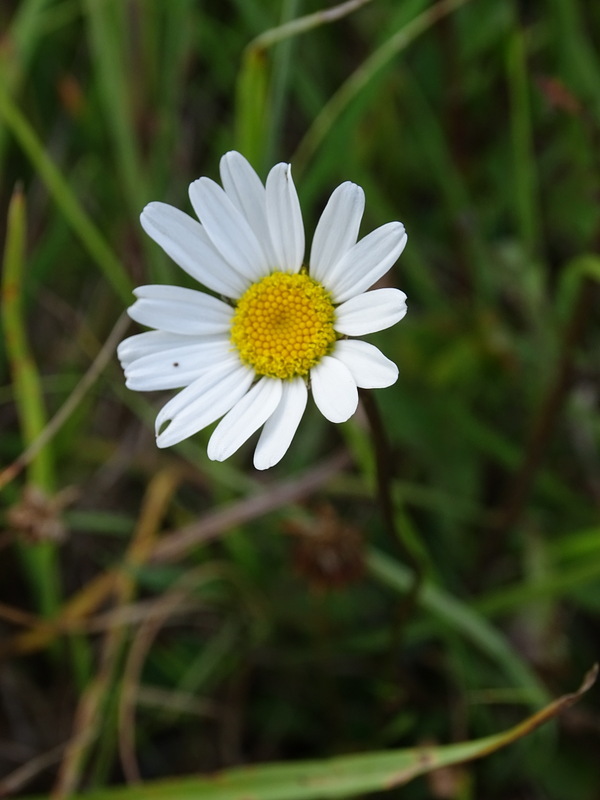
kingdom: Plantae
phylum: Tracheophyta
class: Magnoliopsida
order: Asterales
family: Asteraceae
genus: Leucanthemum
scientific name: Leucanthemum vulgare
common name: Oxeye daisy
